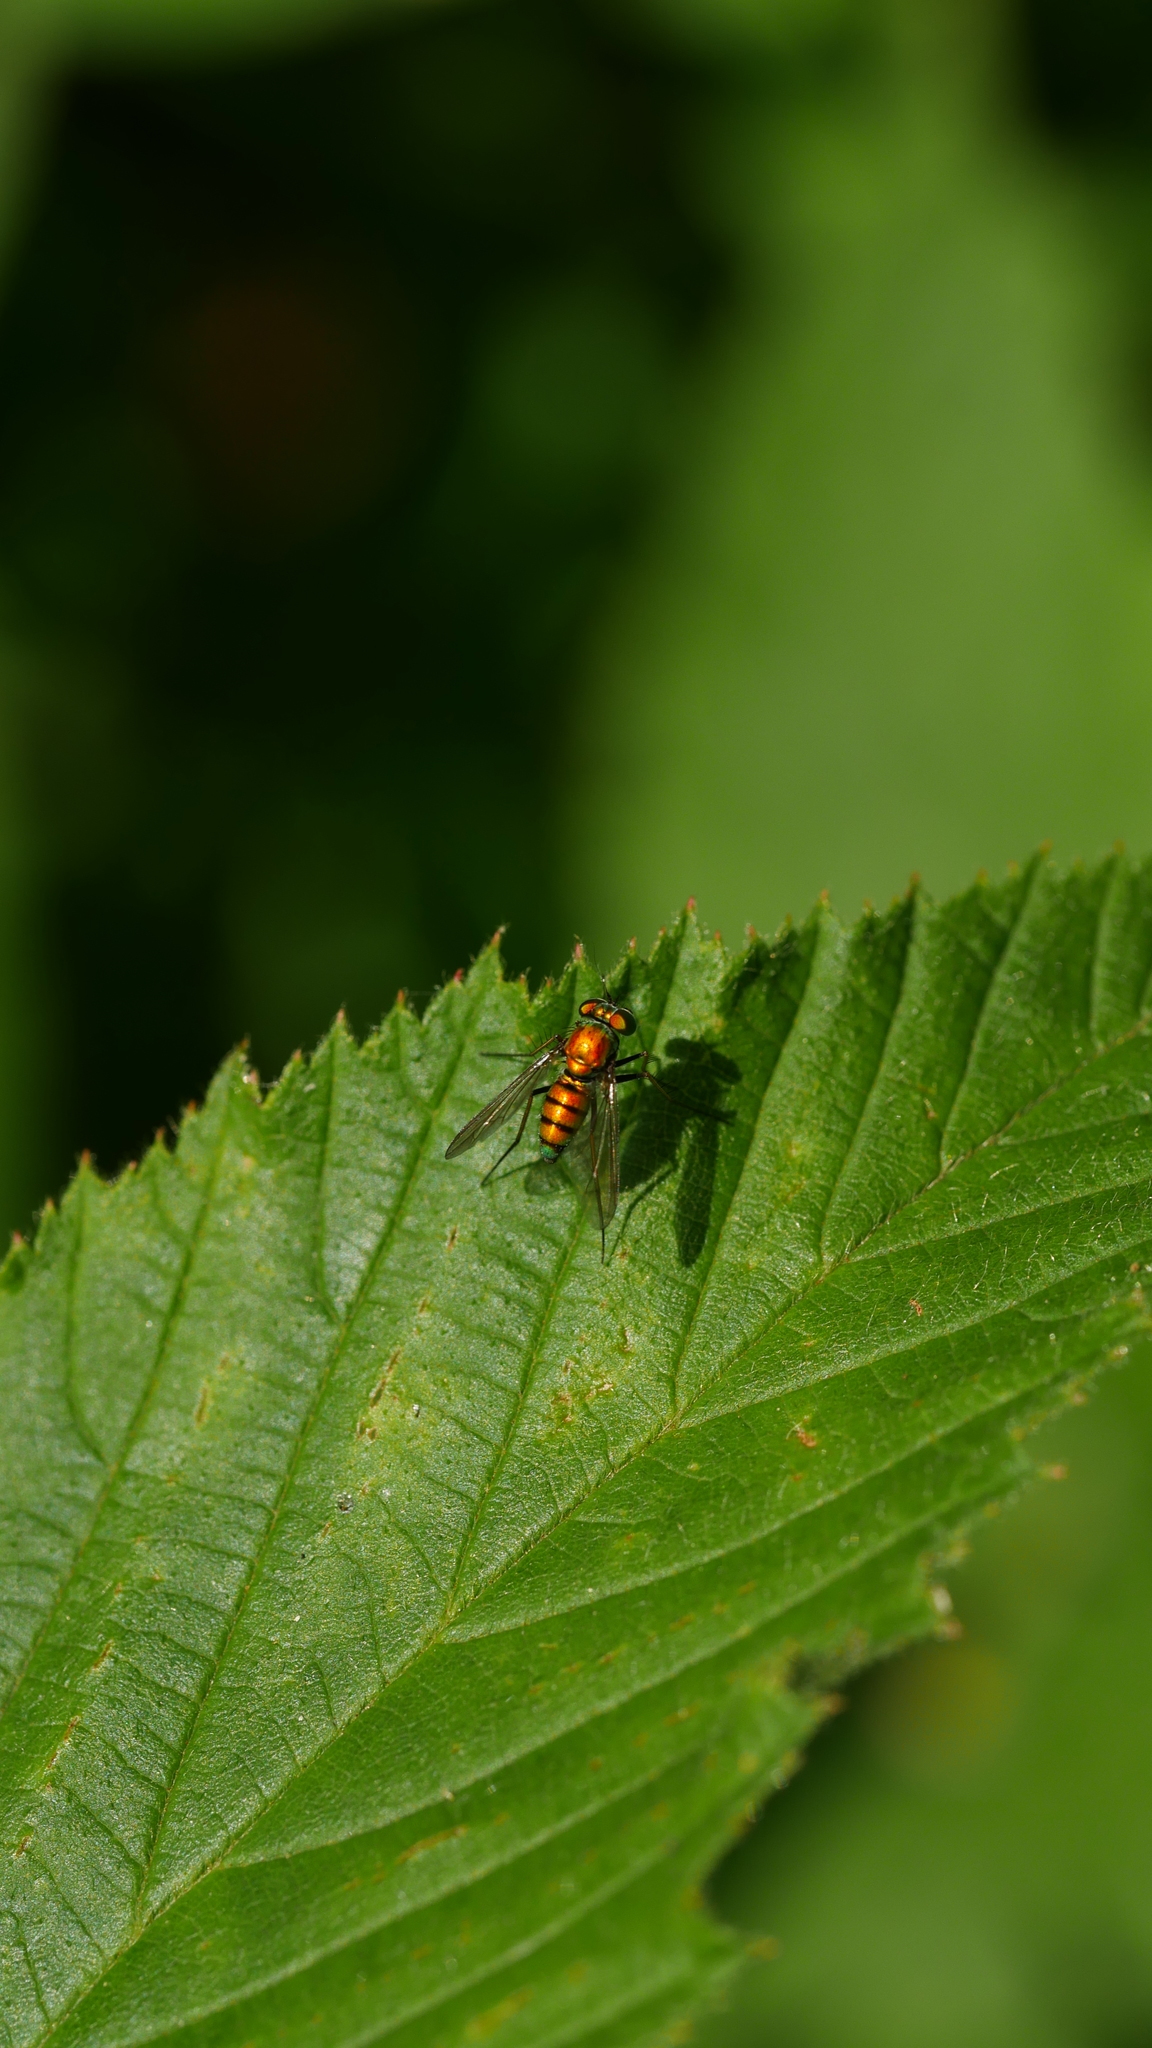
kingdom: Animalia
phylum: Arthropoda
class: Insecta
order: Diptera
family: Dolichopodidae
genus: Condylostylus
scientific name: Condylostylus
